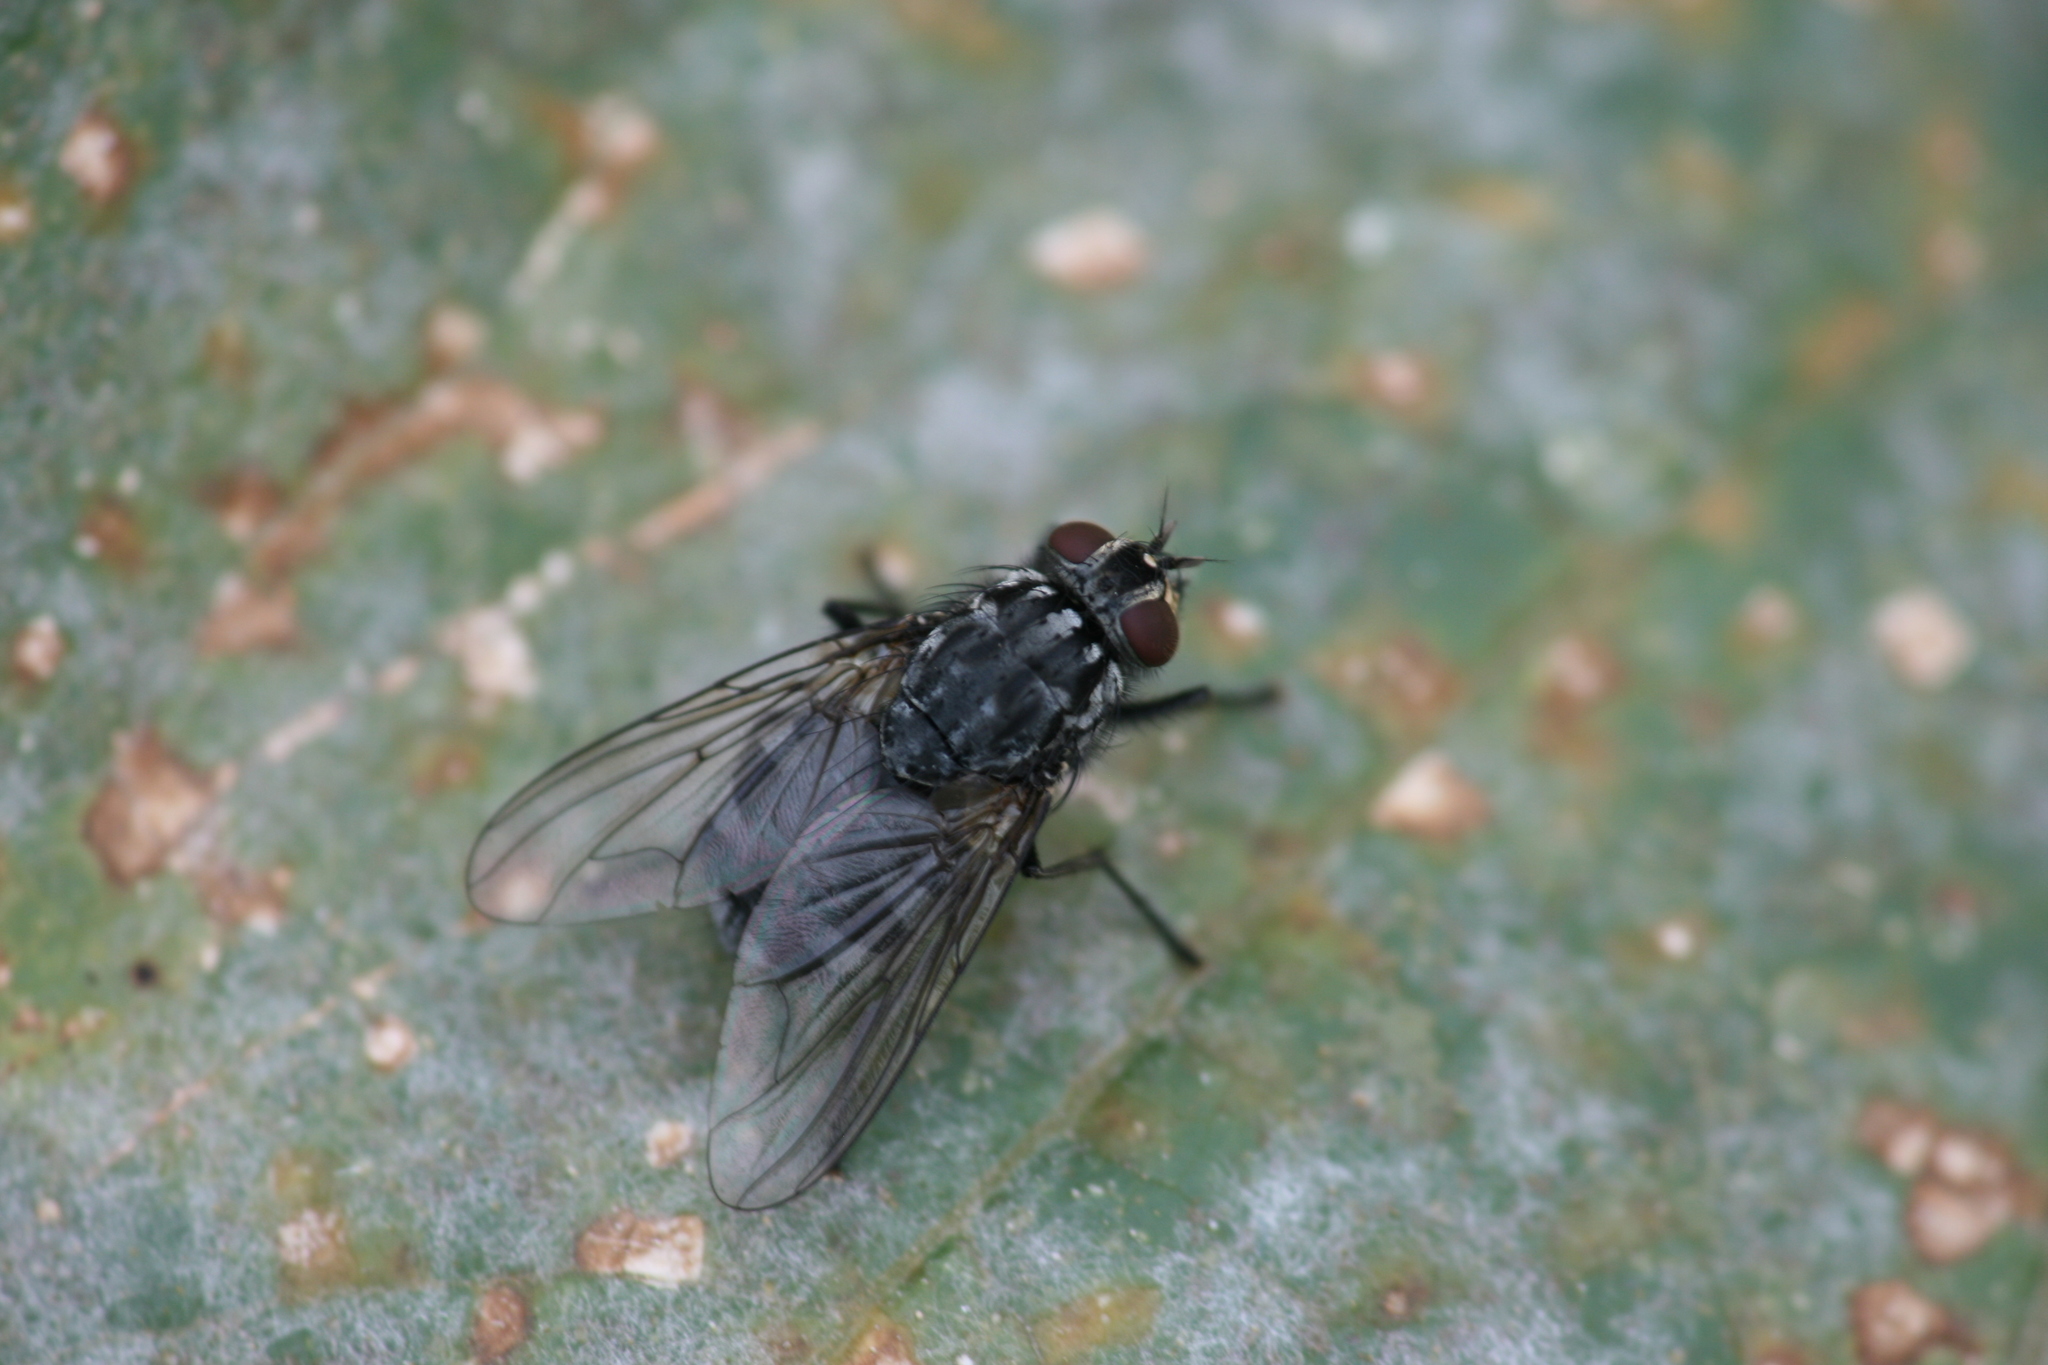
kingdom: Animalia
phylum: Arthropoda
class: Insecta
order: Diptera
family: Muscidae
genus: Polietes
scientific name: Polietes lardaria
